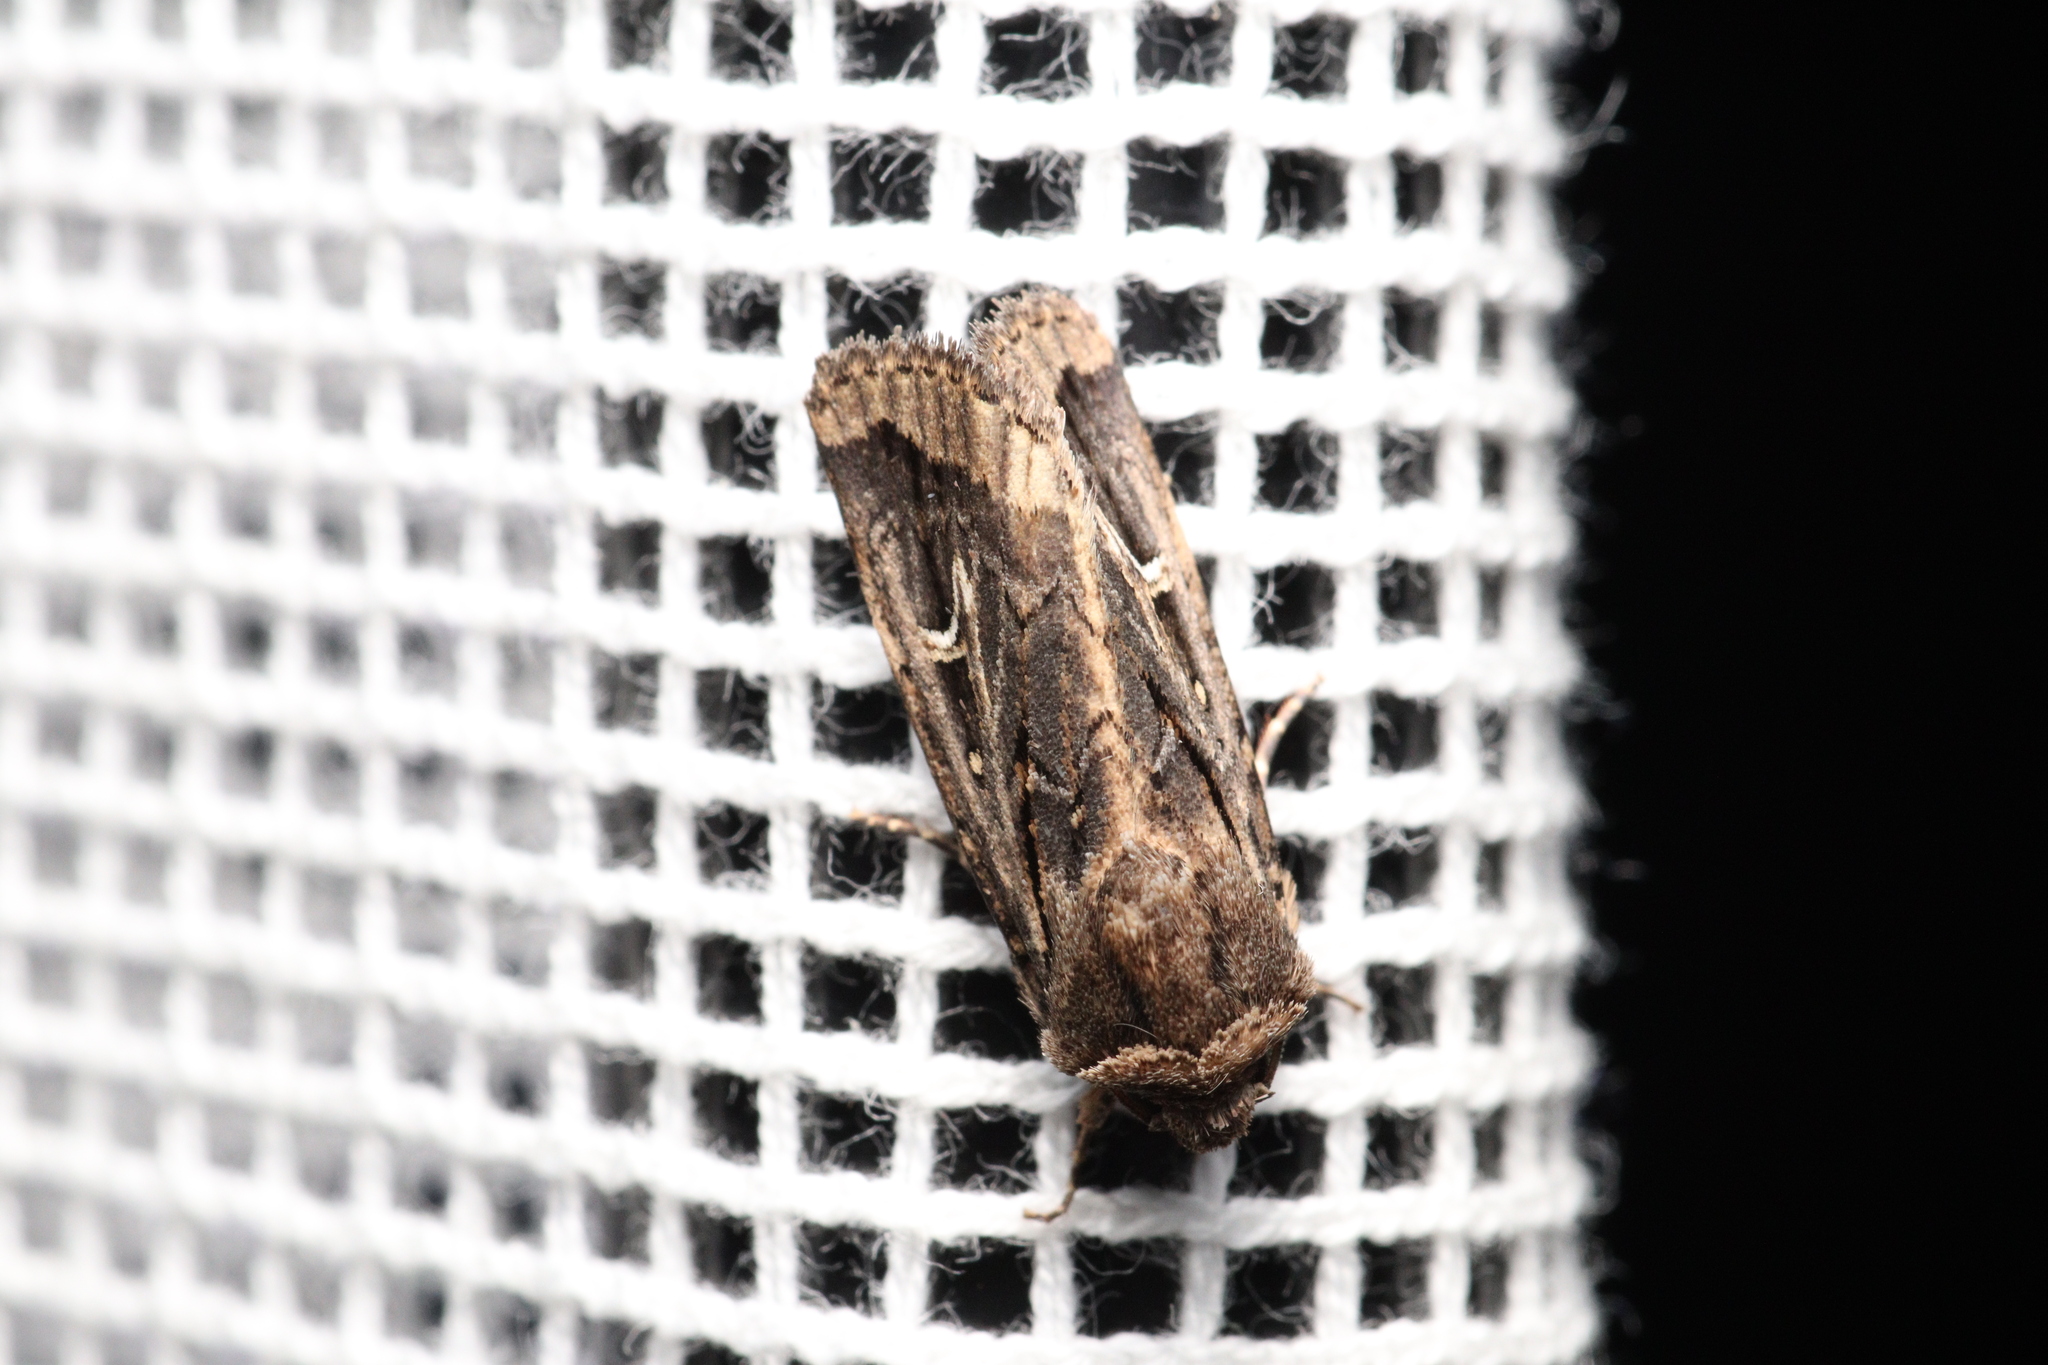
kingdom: Animalia
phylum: Arthropoda
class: Insecta
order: Lepidoptera
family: Noctuidae
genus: Proteuxoa
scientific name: Proteuxoa nuna
